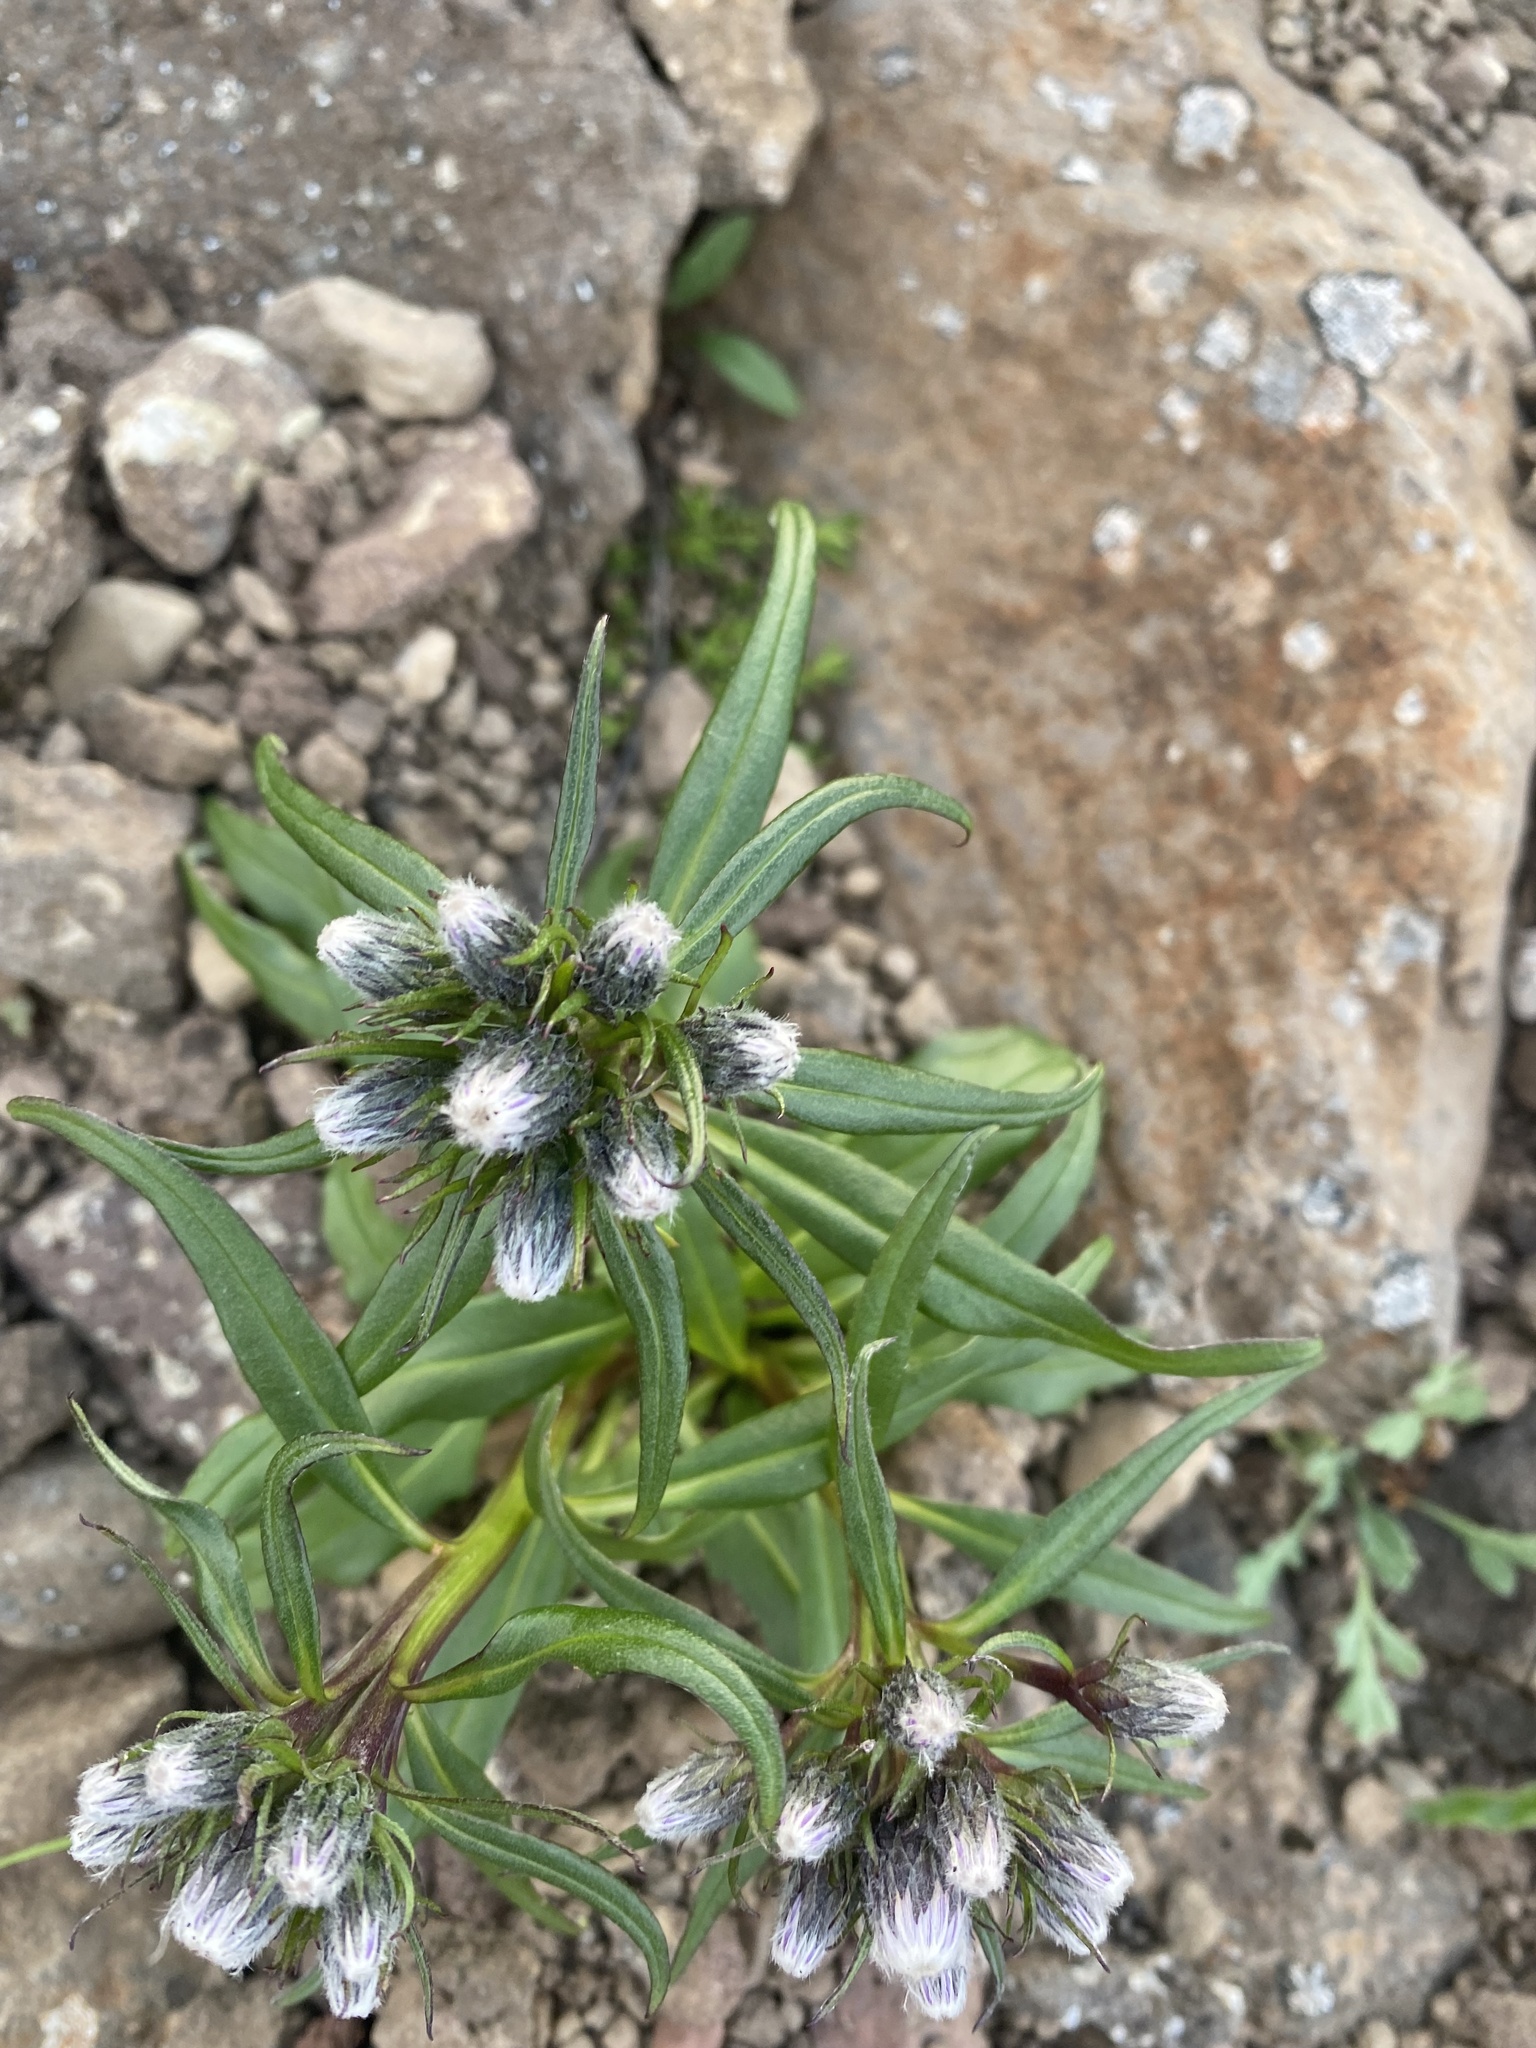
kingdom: Plantae
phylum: Tracheophyta
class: Magnoliopsida
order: Asterales
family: Asteraceae
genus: Saussurea
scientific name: Saussurea tilesii
